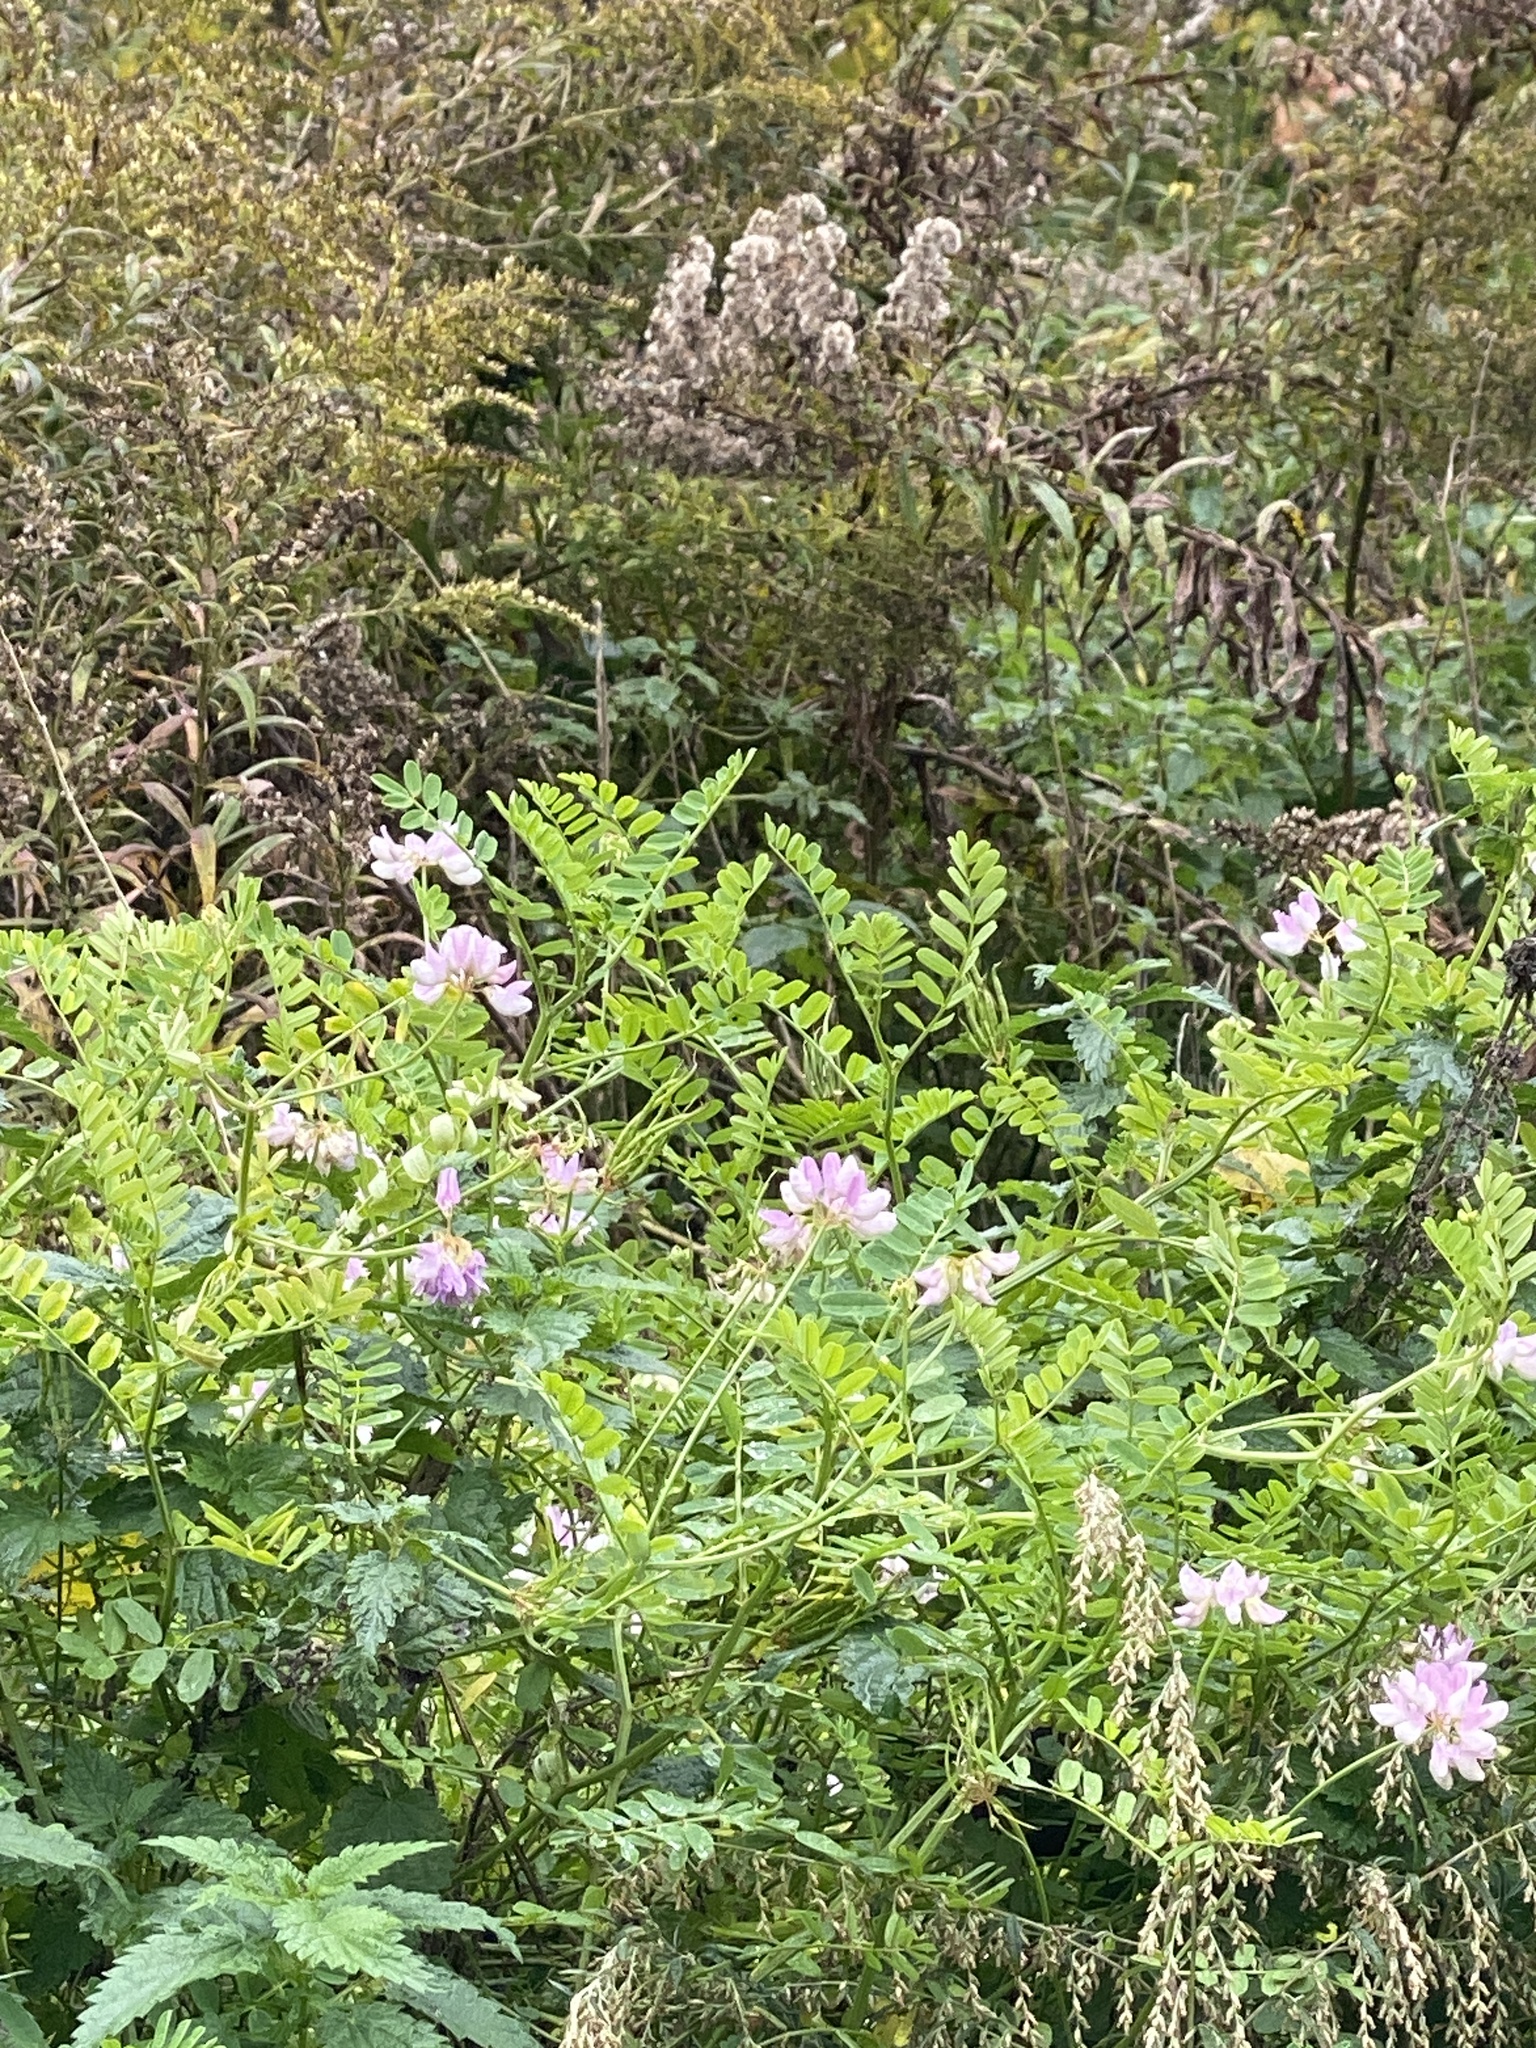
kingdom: Plantae
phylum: Tracheophyta
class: Magnoliopsida
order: Fabales
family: Fabaceae
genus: Coronilla
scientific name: Coronilla varia
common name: Crownvetch
